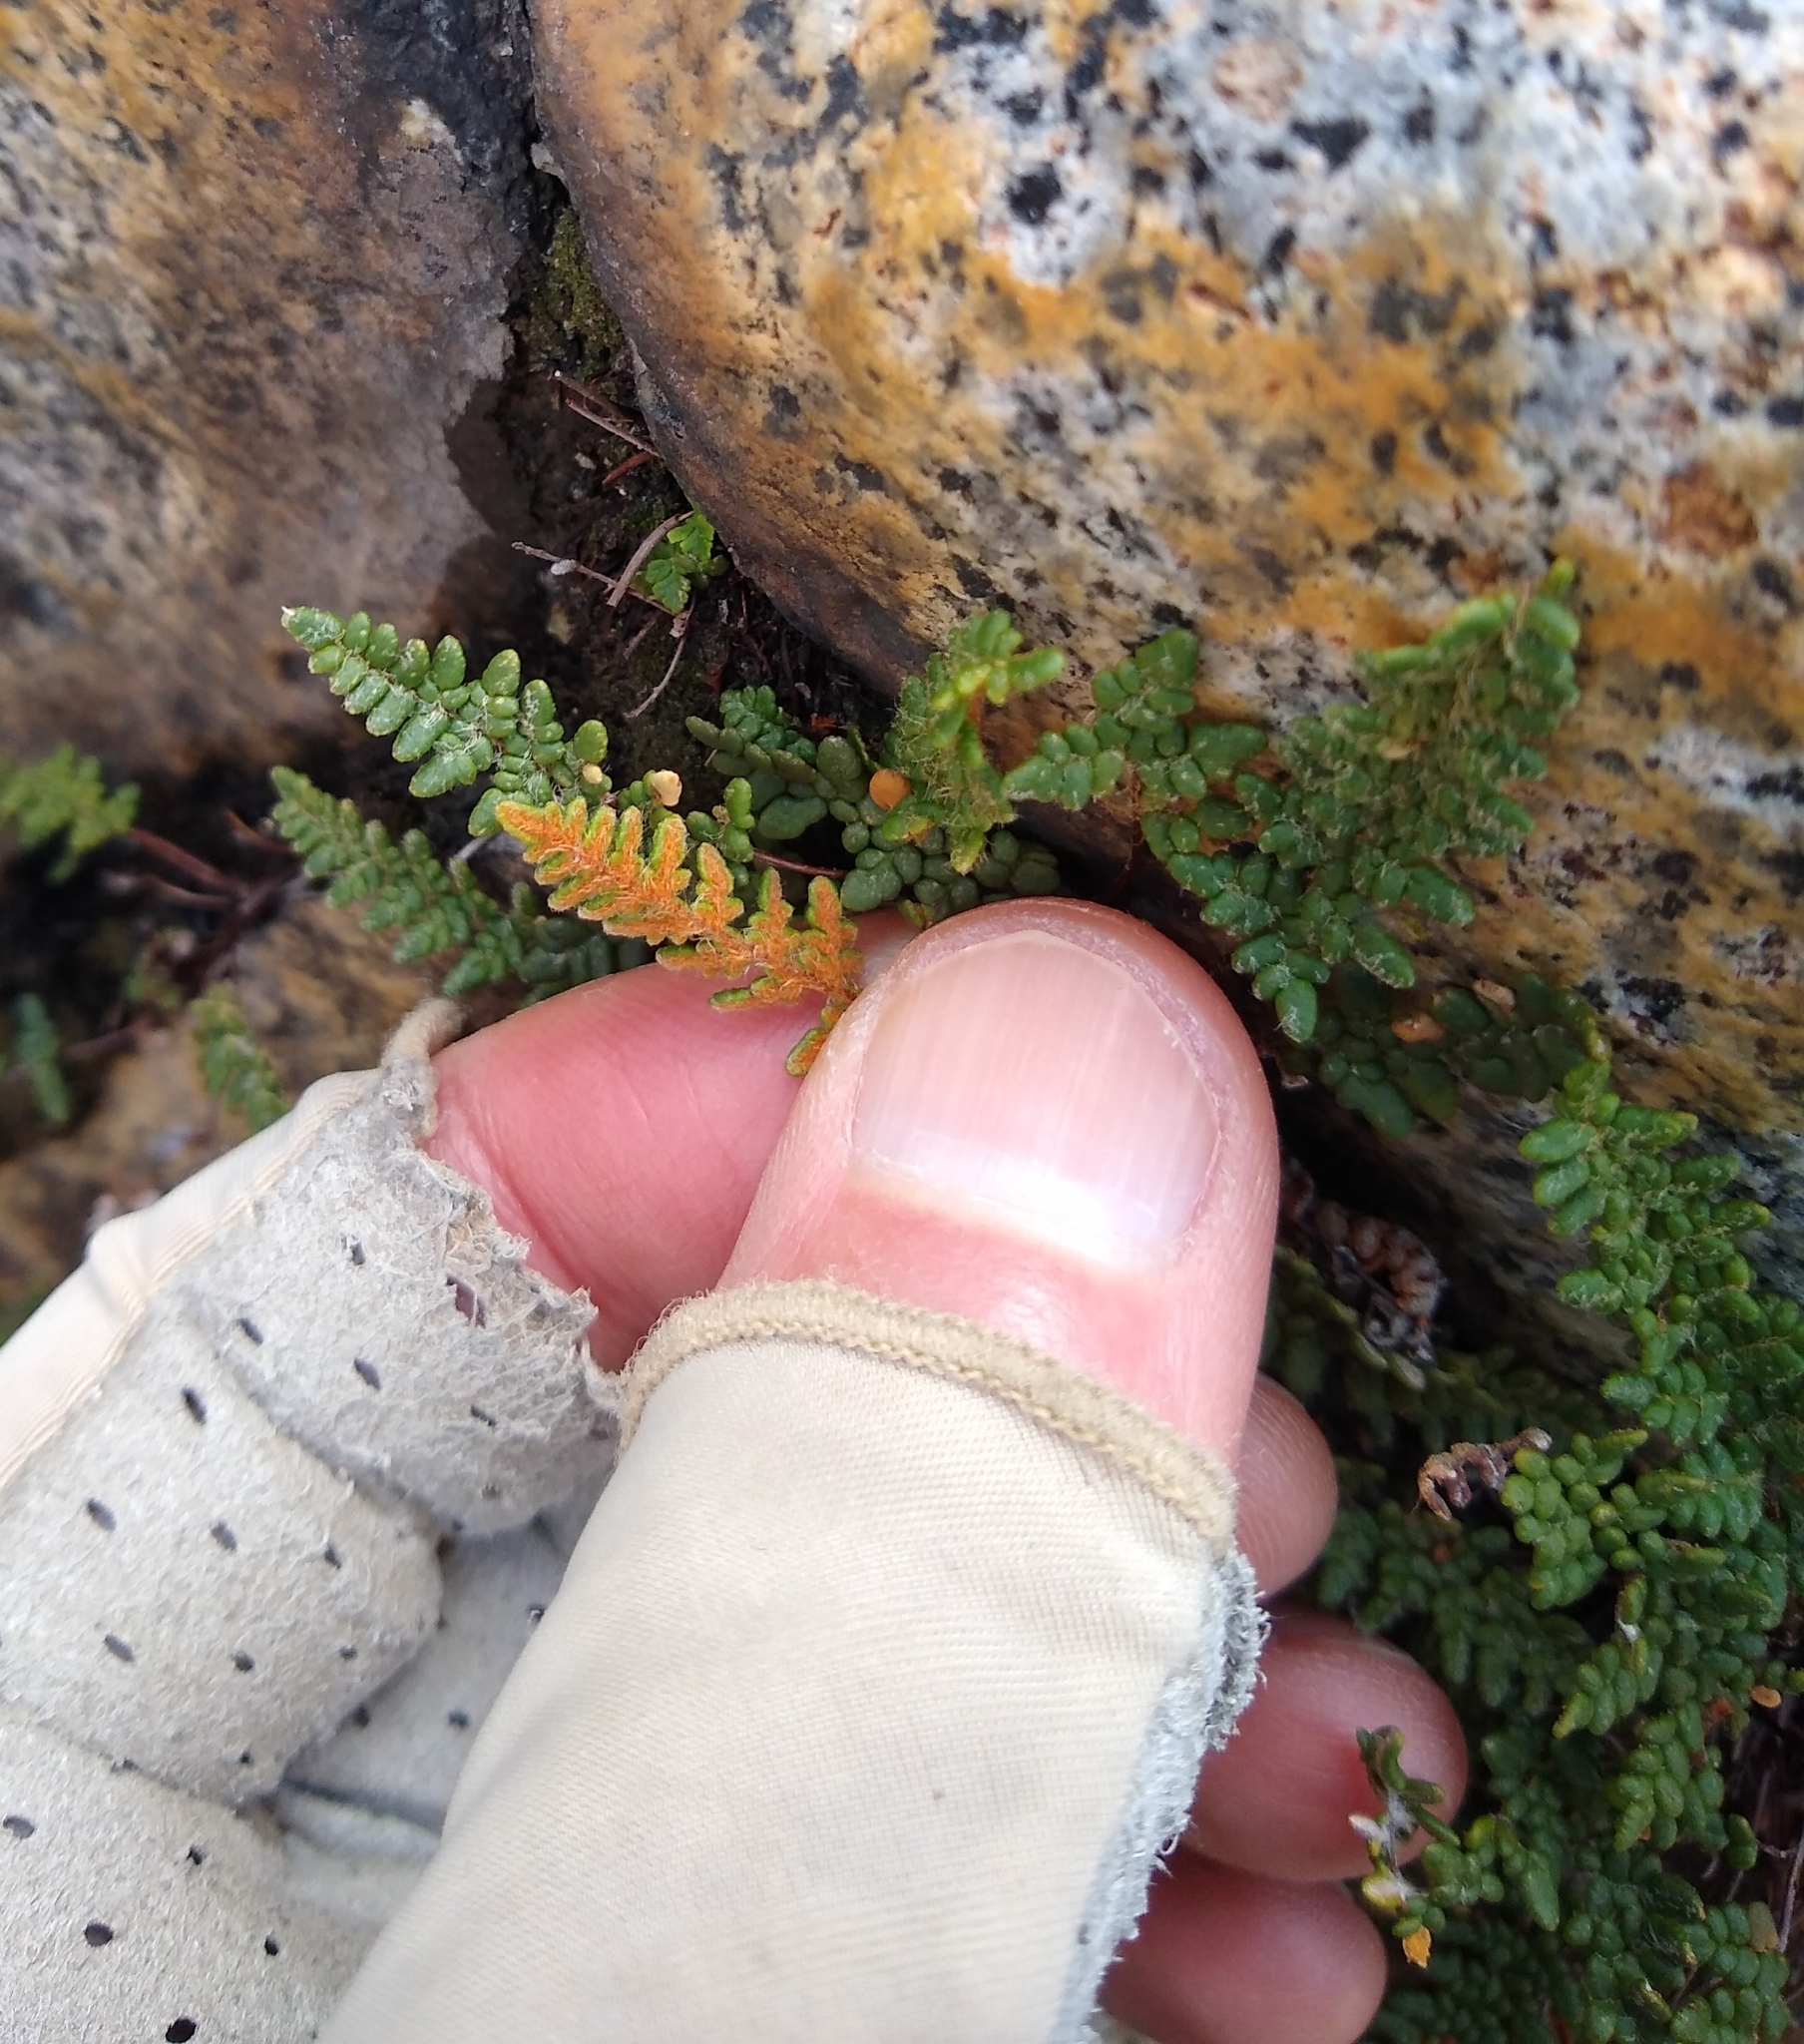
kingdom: Plantae
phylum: Tracheophyta
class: Polypodiopsida
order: Polypodiales
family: Pteridaceae
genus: Myriopteris
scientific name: Myriopteris gracillima
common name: Lace fern
